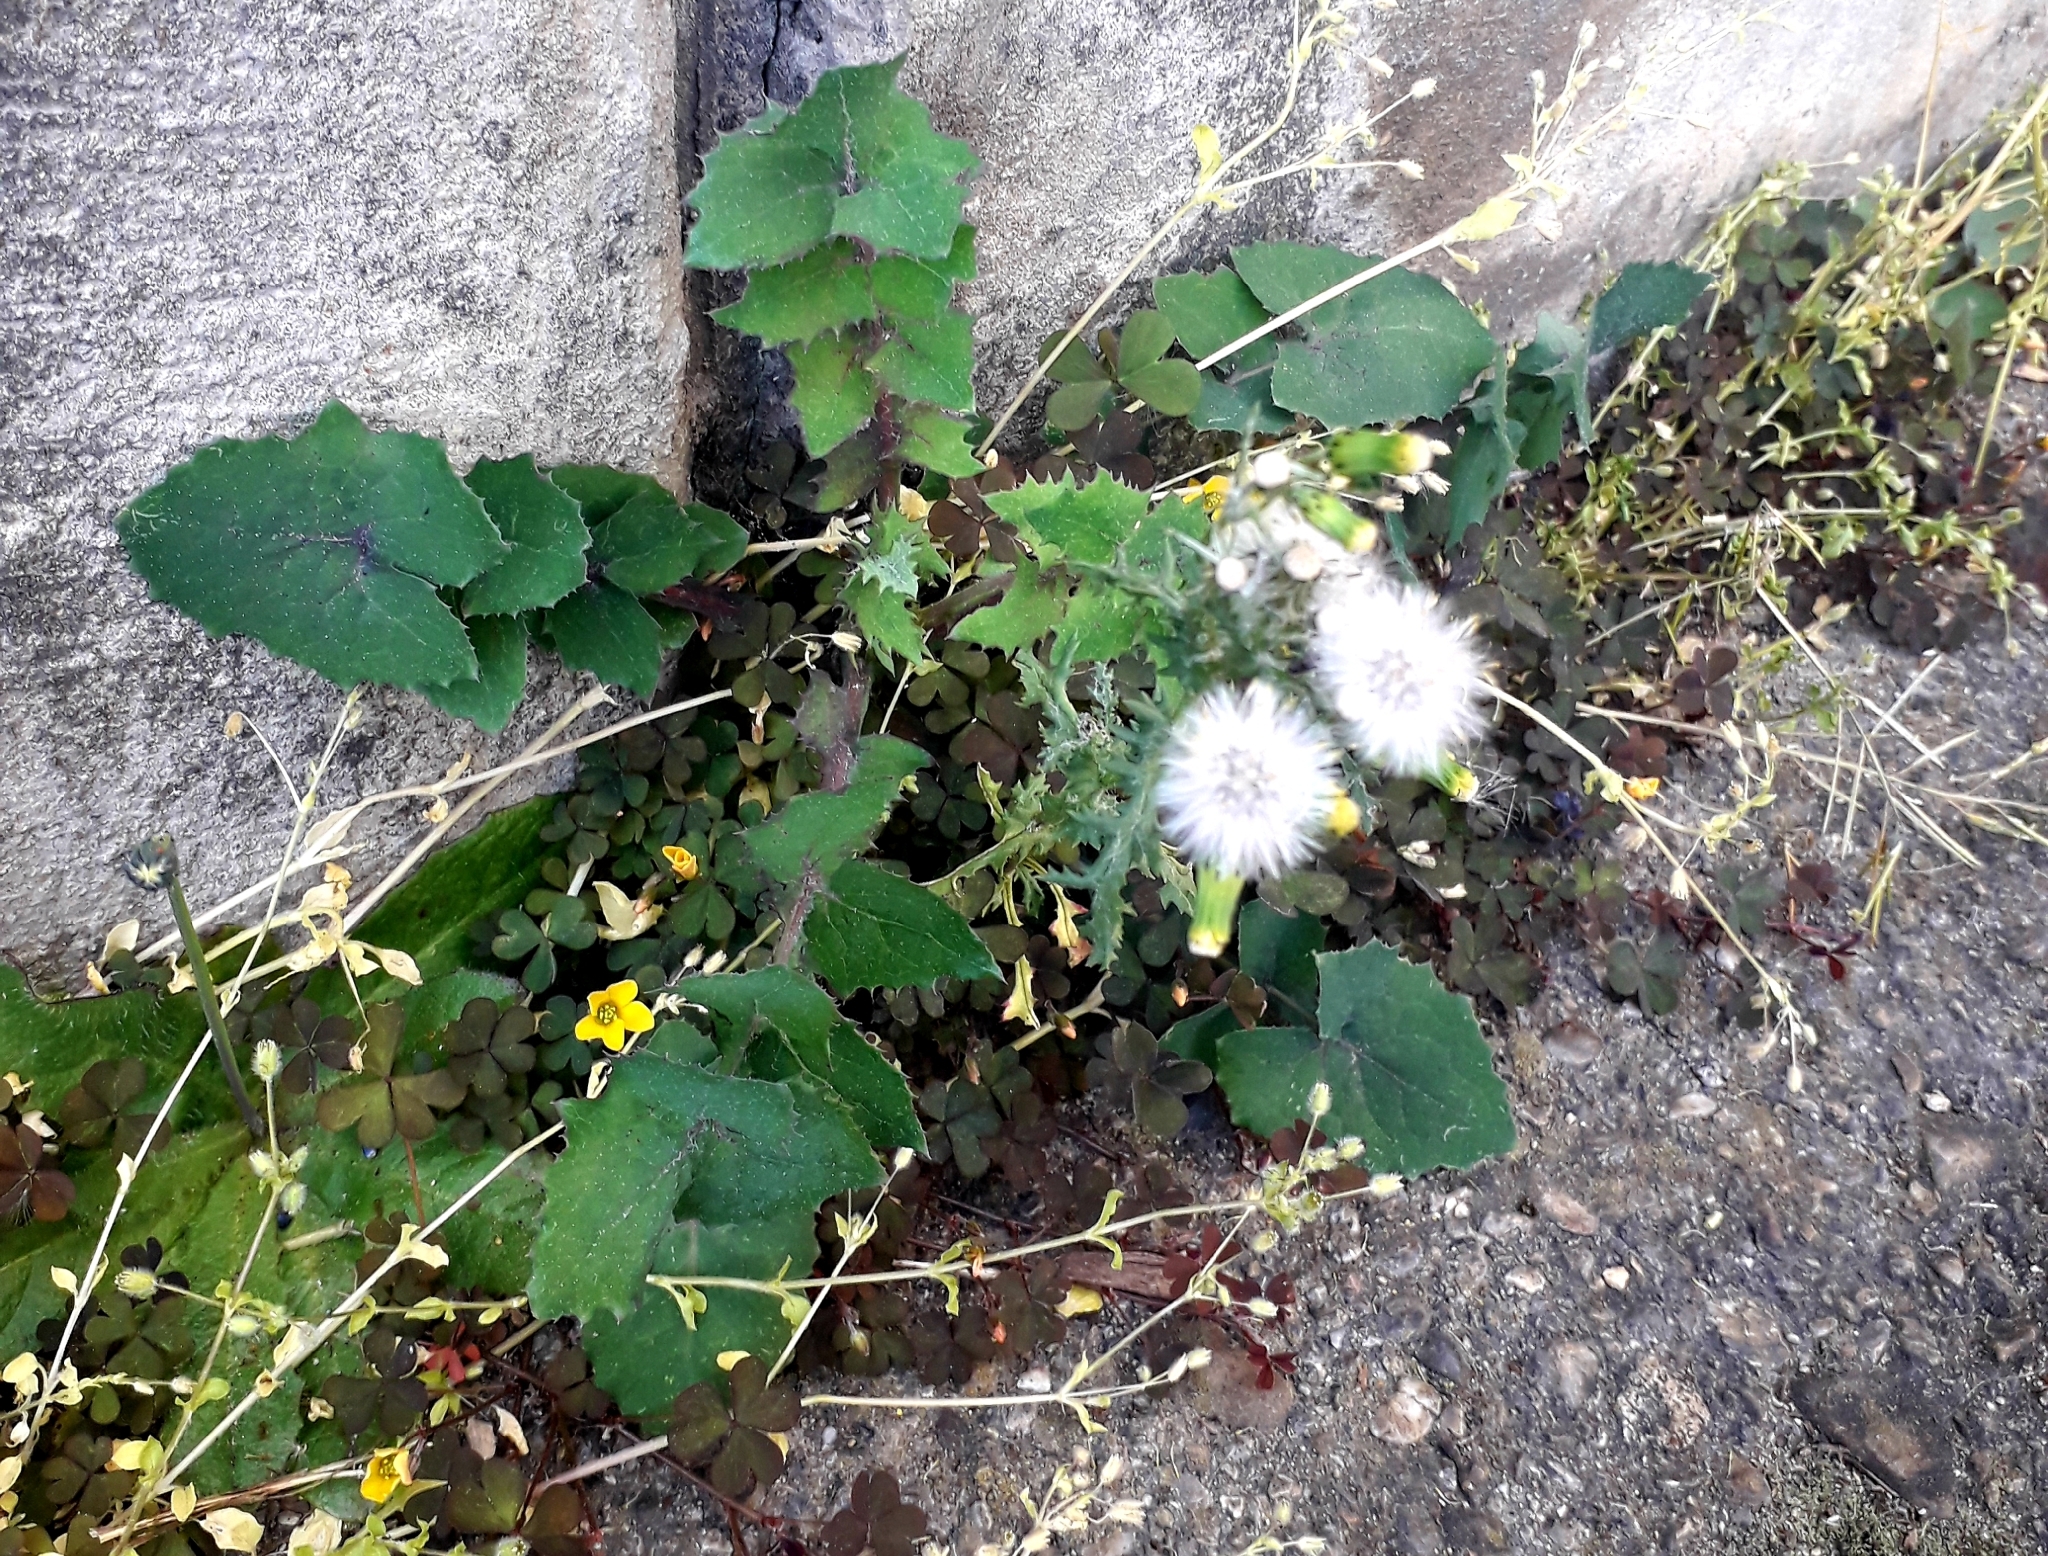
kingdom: Plantae
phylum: Tracheophyta
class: Magnoliopsida
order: Asterales
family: Asteraceae
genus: Sonchus
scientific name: Sonchus oleraceus
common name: Common sowthistle
